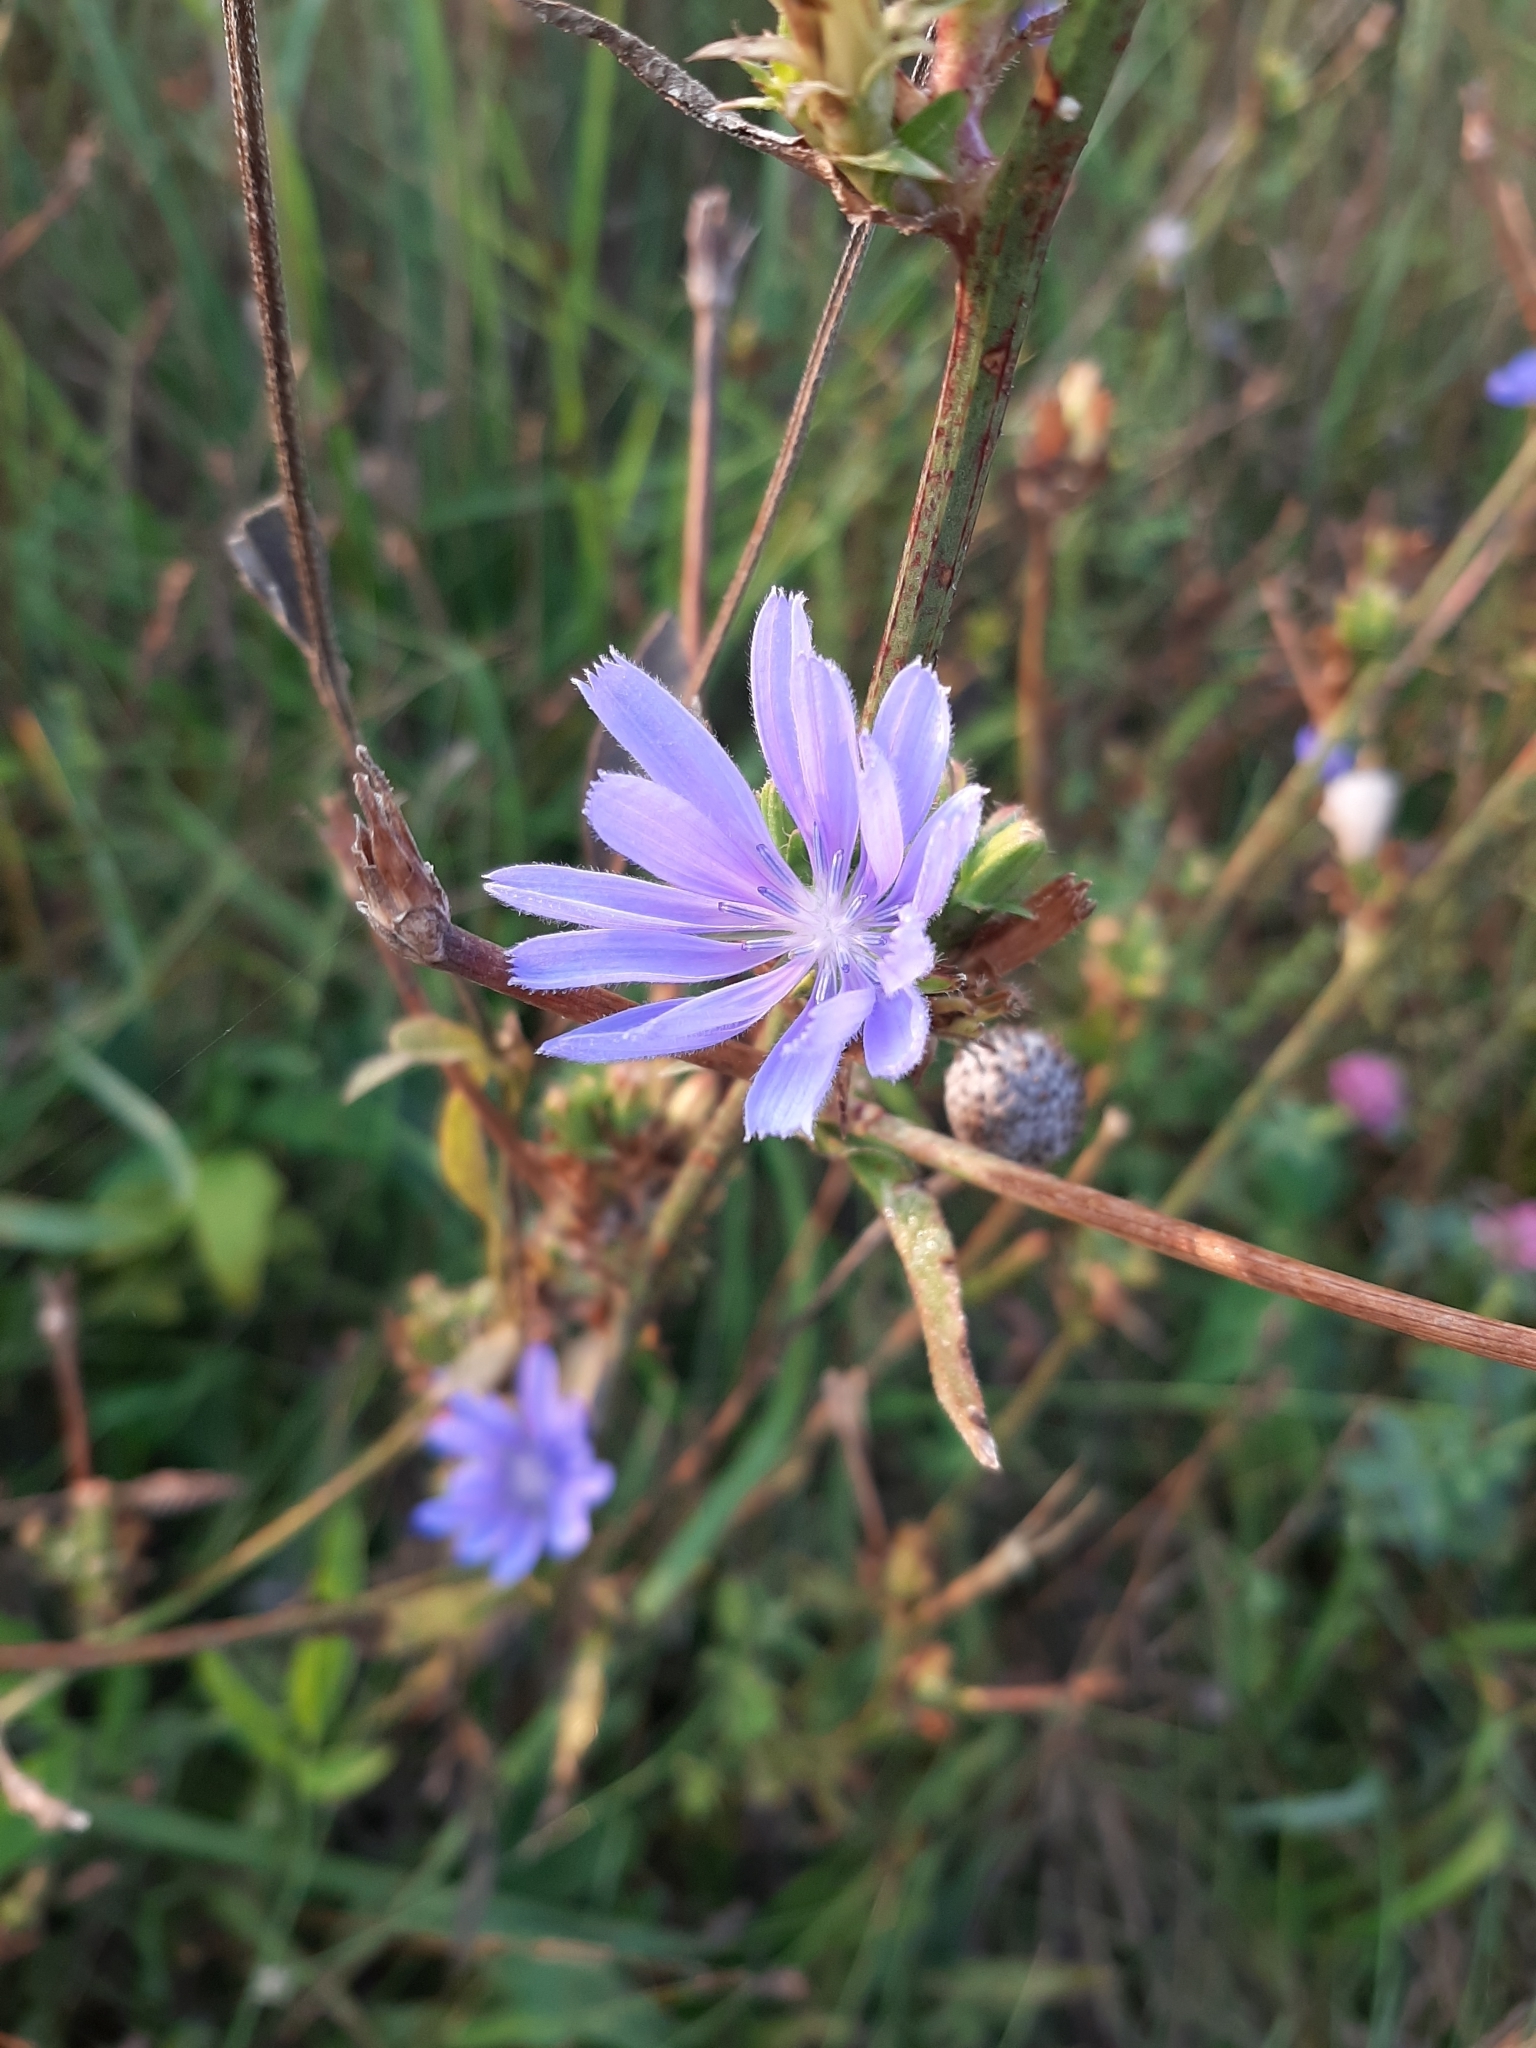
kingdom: Plantae
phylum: Tracheophyta
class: Magnoliopsida
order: Asterales
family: Asteraceae
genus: Cichorium
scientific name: Cichorium intybus
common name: Chicory
